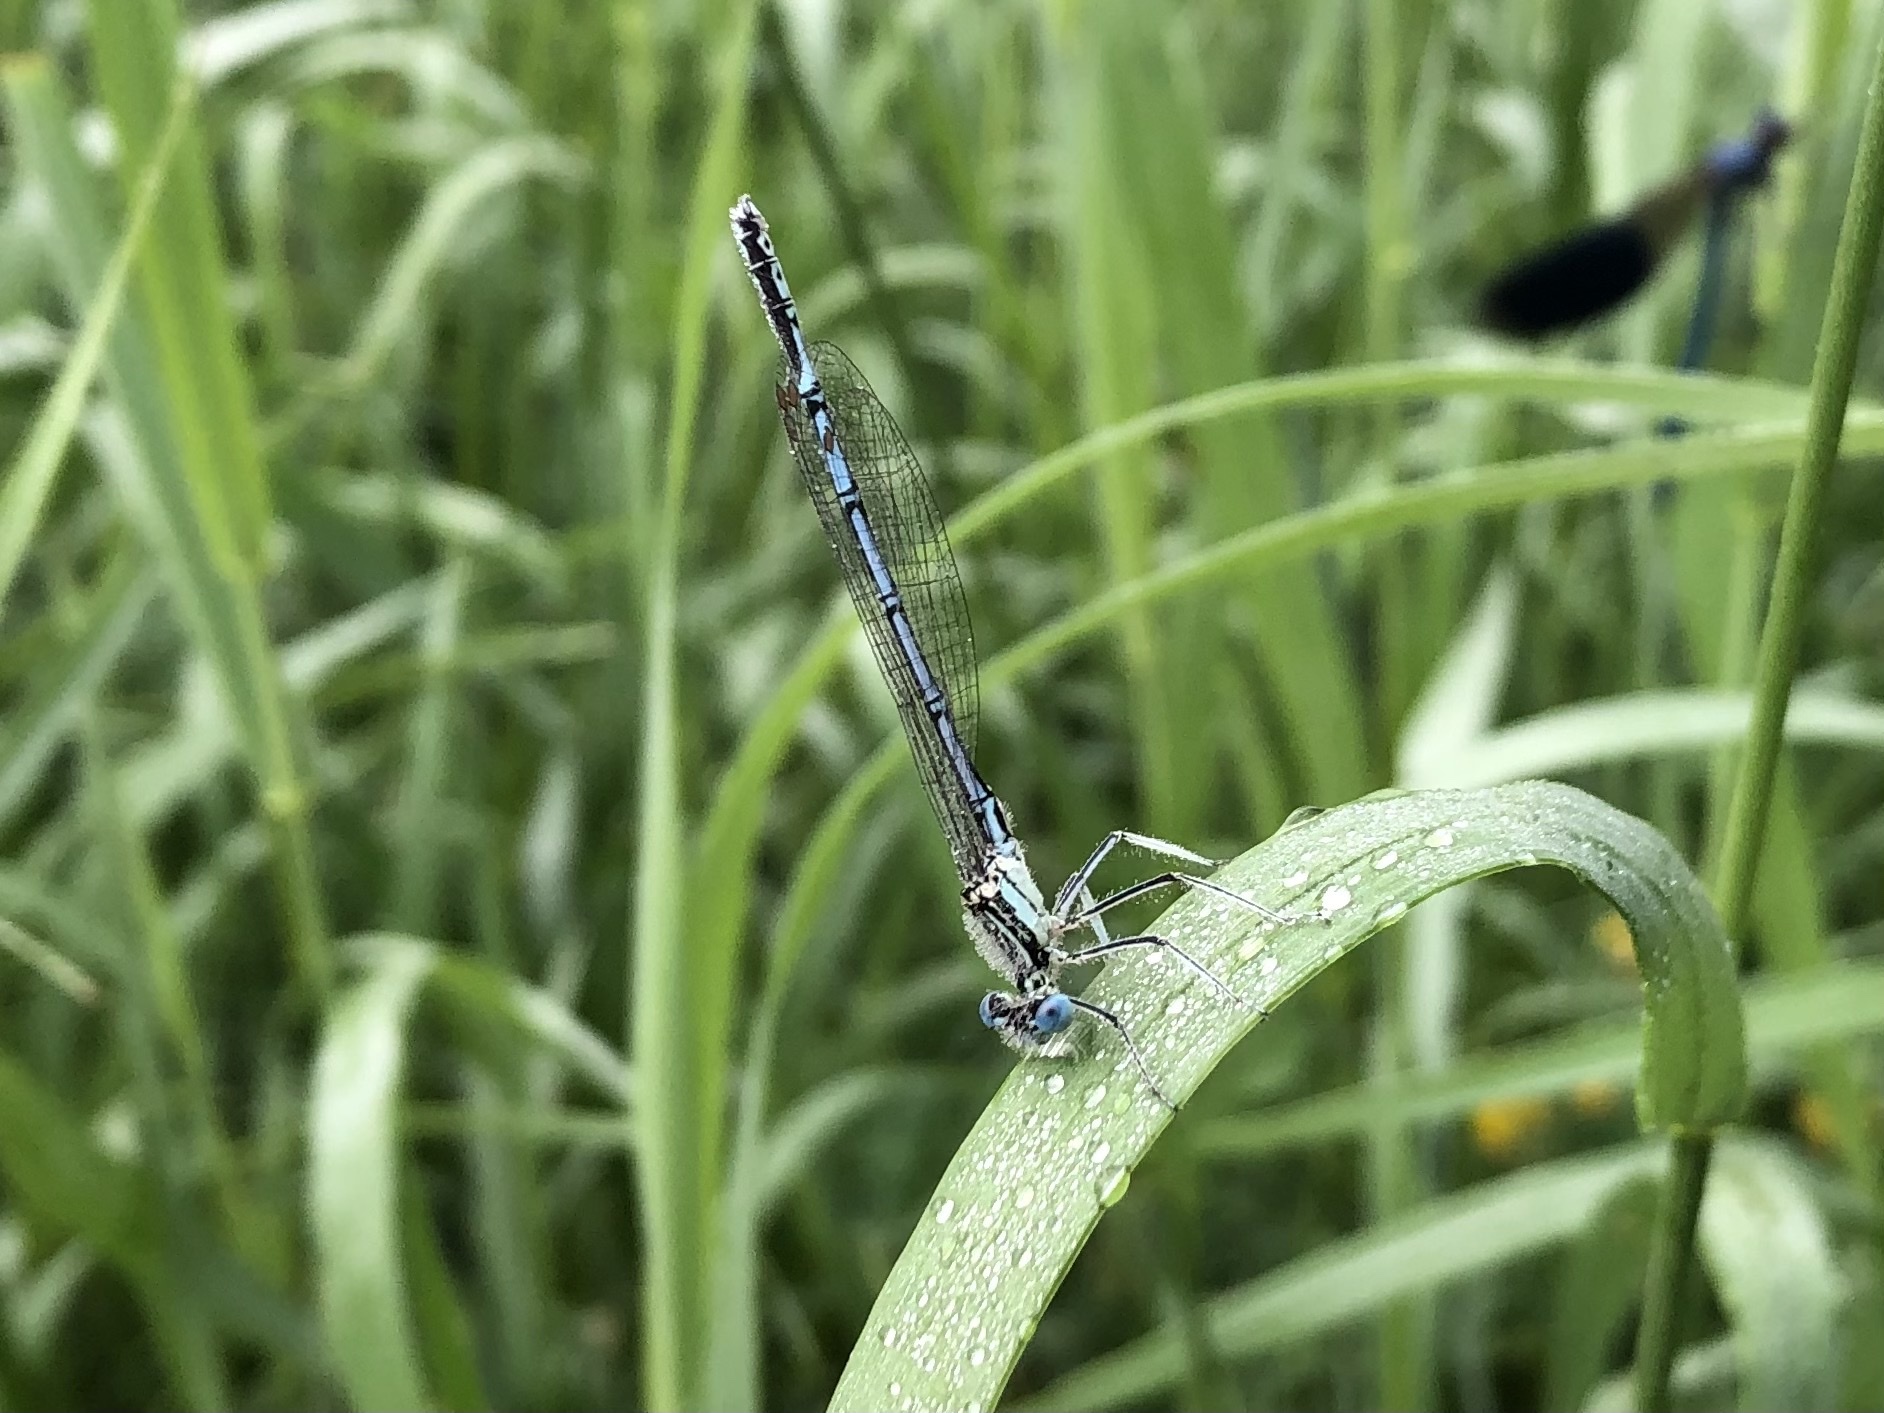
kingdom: Animalia
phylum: Arthropoda
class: Insecta
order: Odonata
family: Platycnemididae
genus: Platycnemis
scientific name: Platycnemis pennipes
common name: White-legged damselfly
